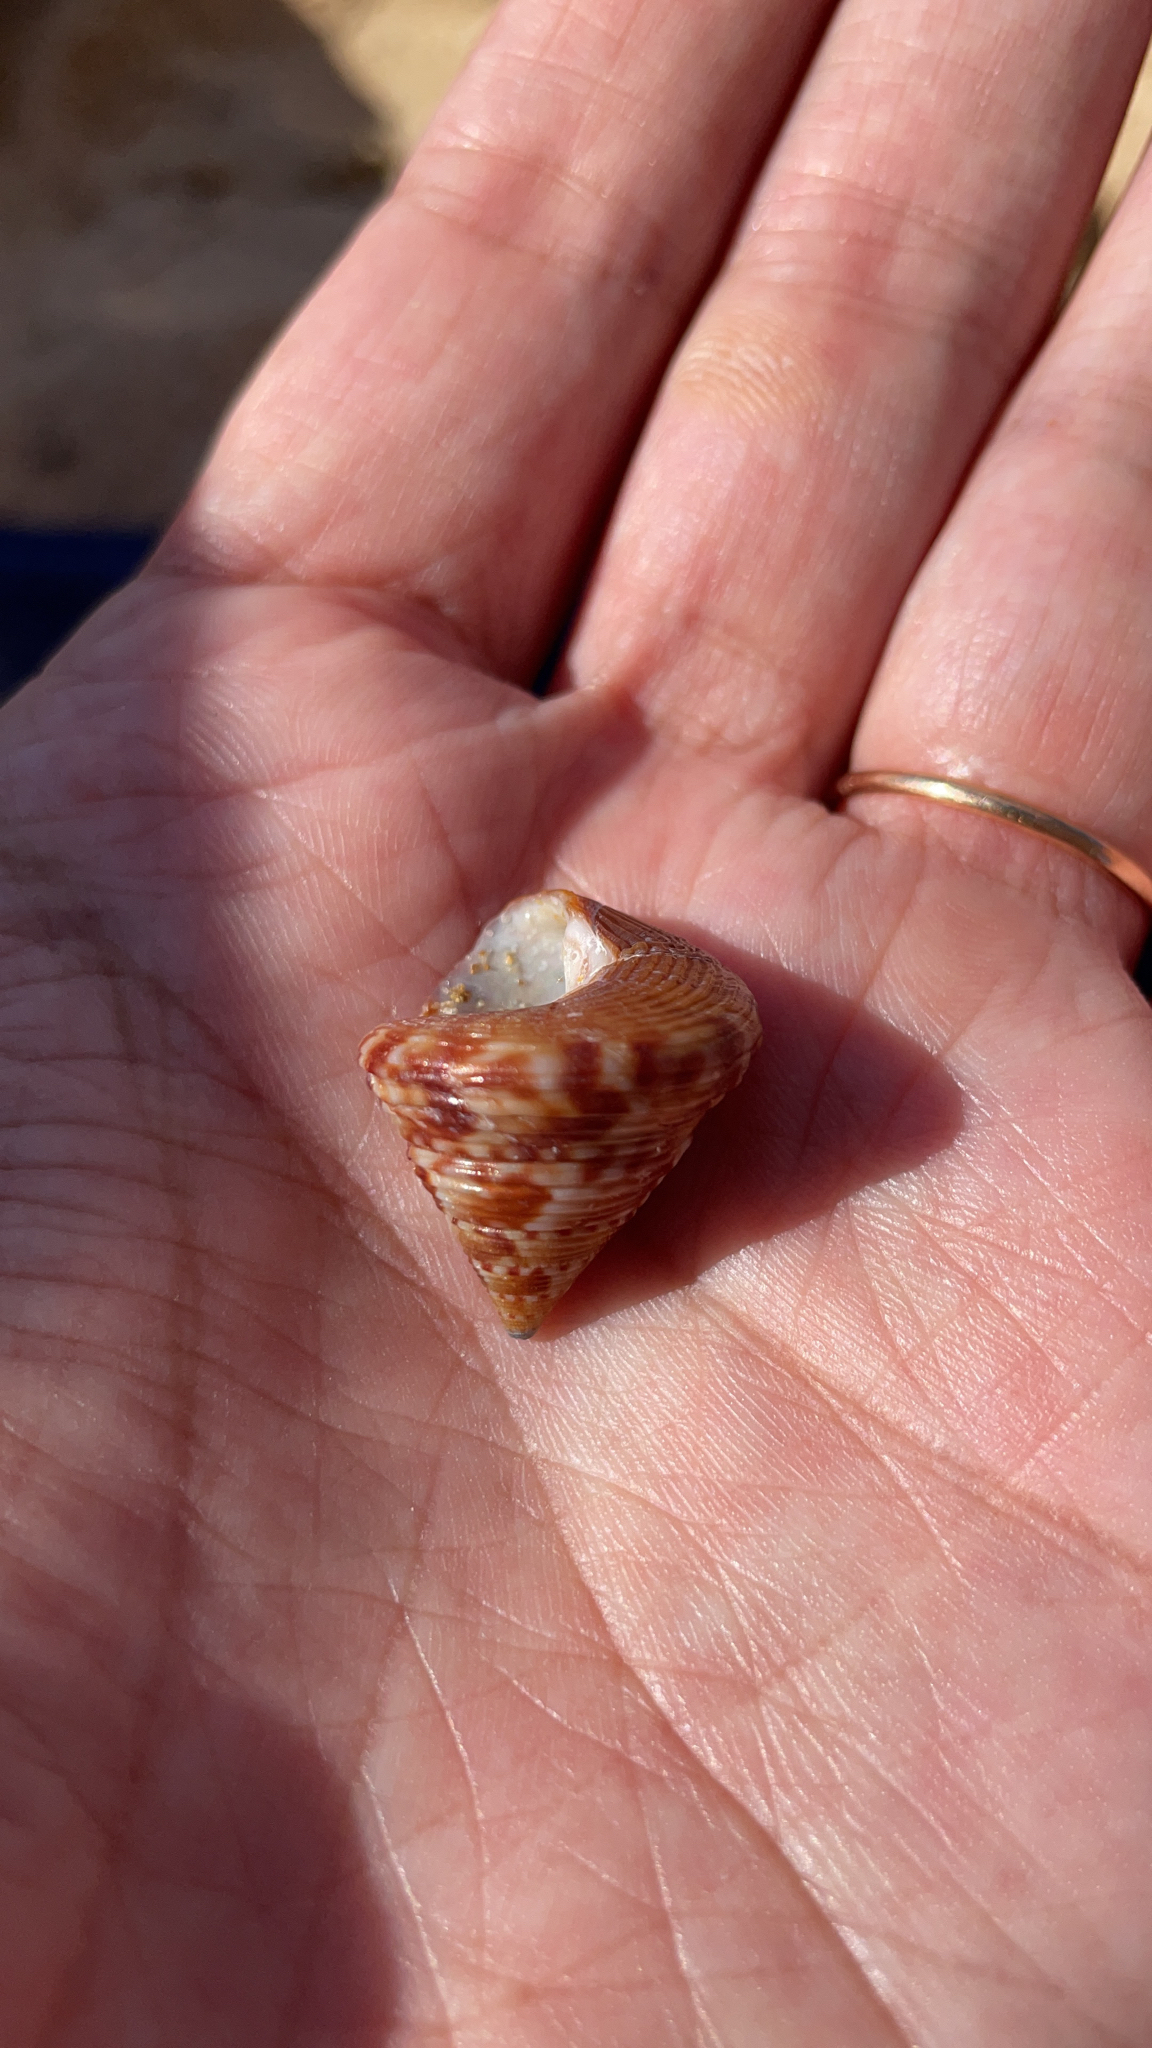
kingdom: Animalia
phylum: Mollusca
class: Gastropoda
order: Trochida
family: Calliostomatidae
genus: Calliostoma
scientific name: Calliostoma zizyphinum
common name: Painted top shell
